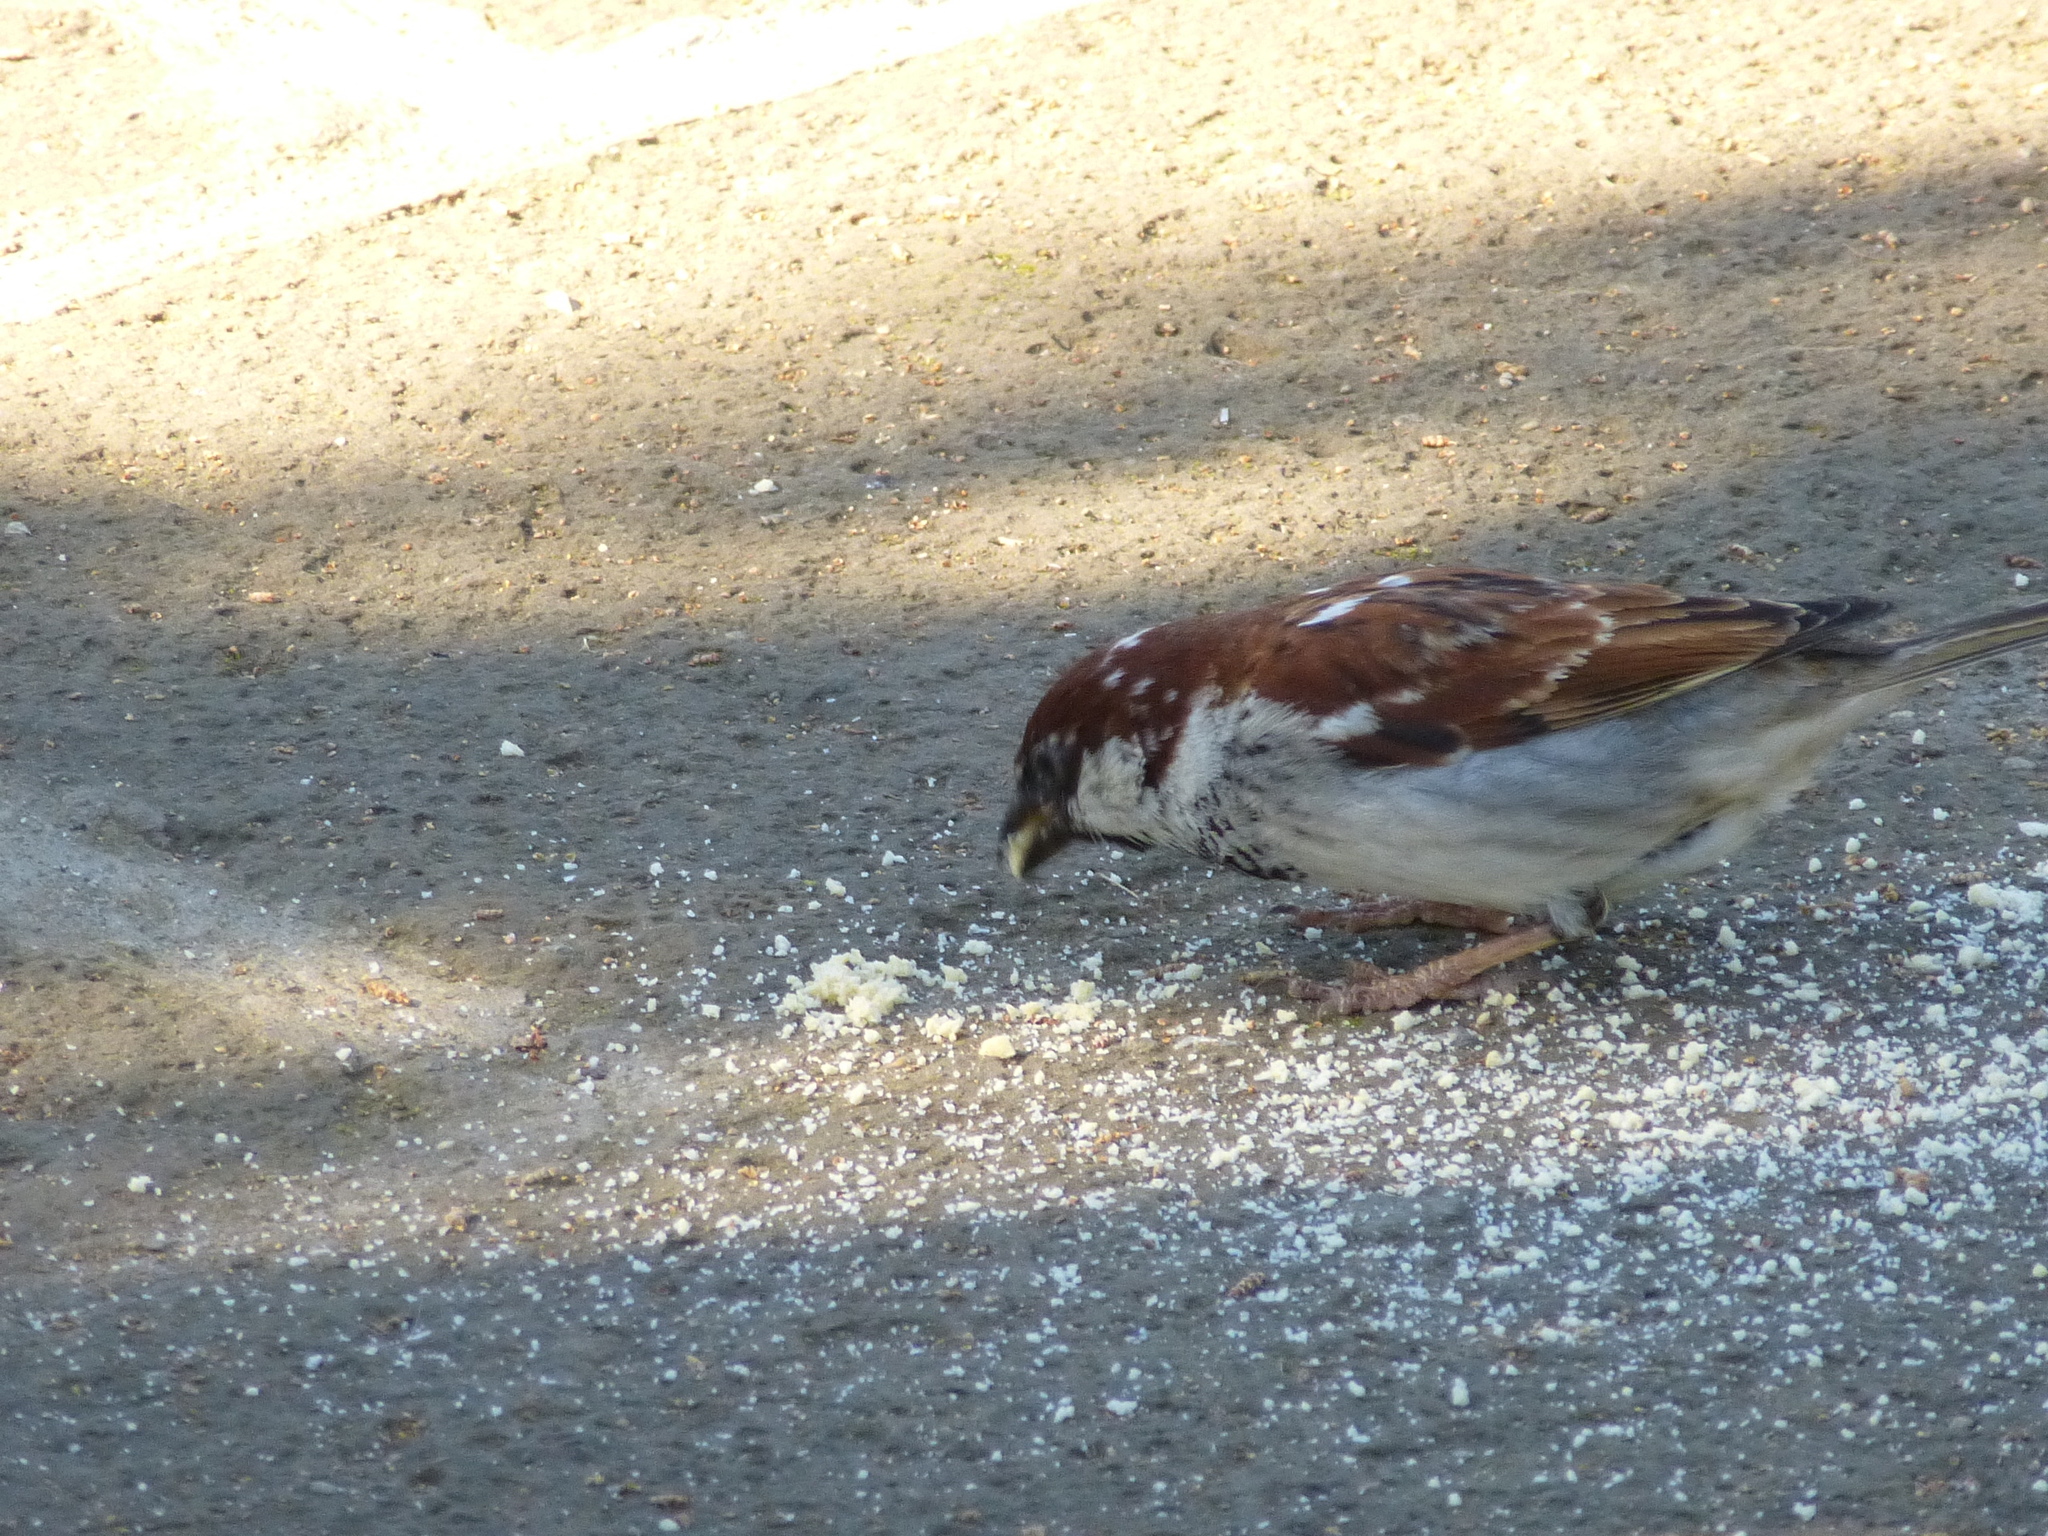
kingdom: Animalia
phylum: Chordata
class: Aves
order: Passeriformes
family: Passeridae
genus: Passer
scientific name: Passer italiae
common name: Italian sparrow
